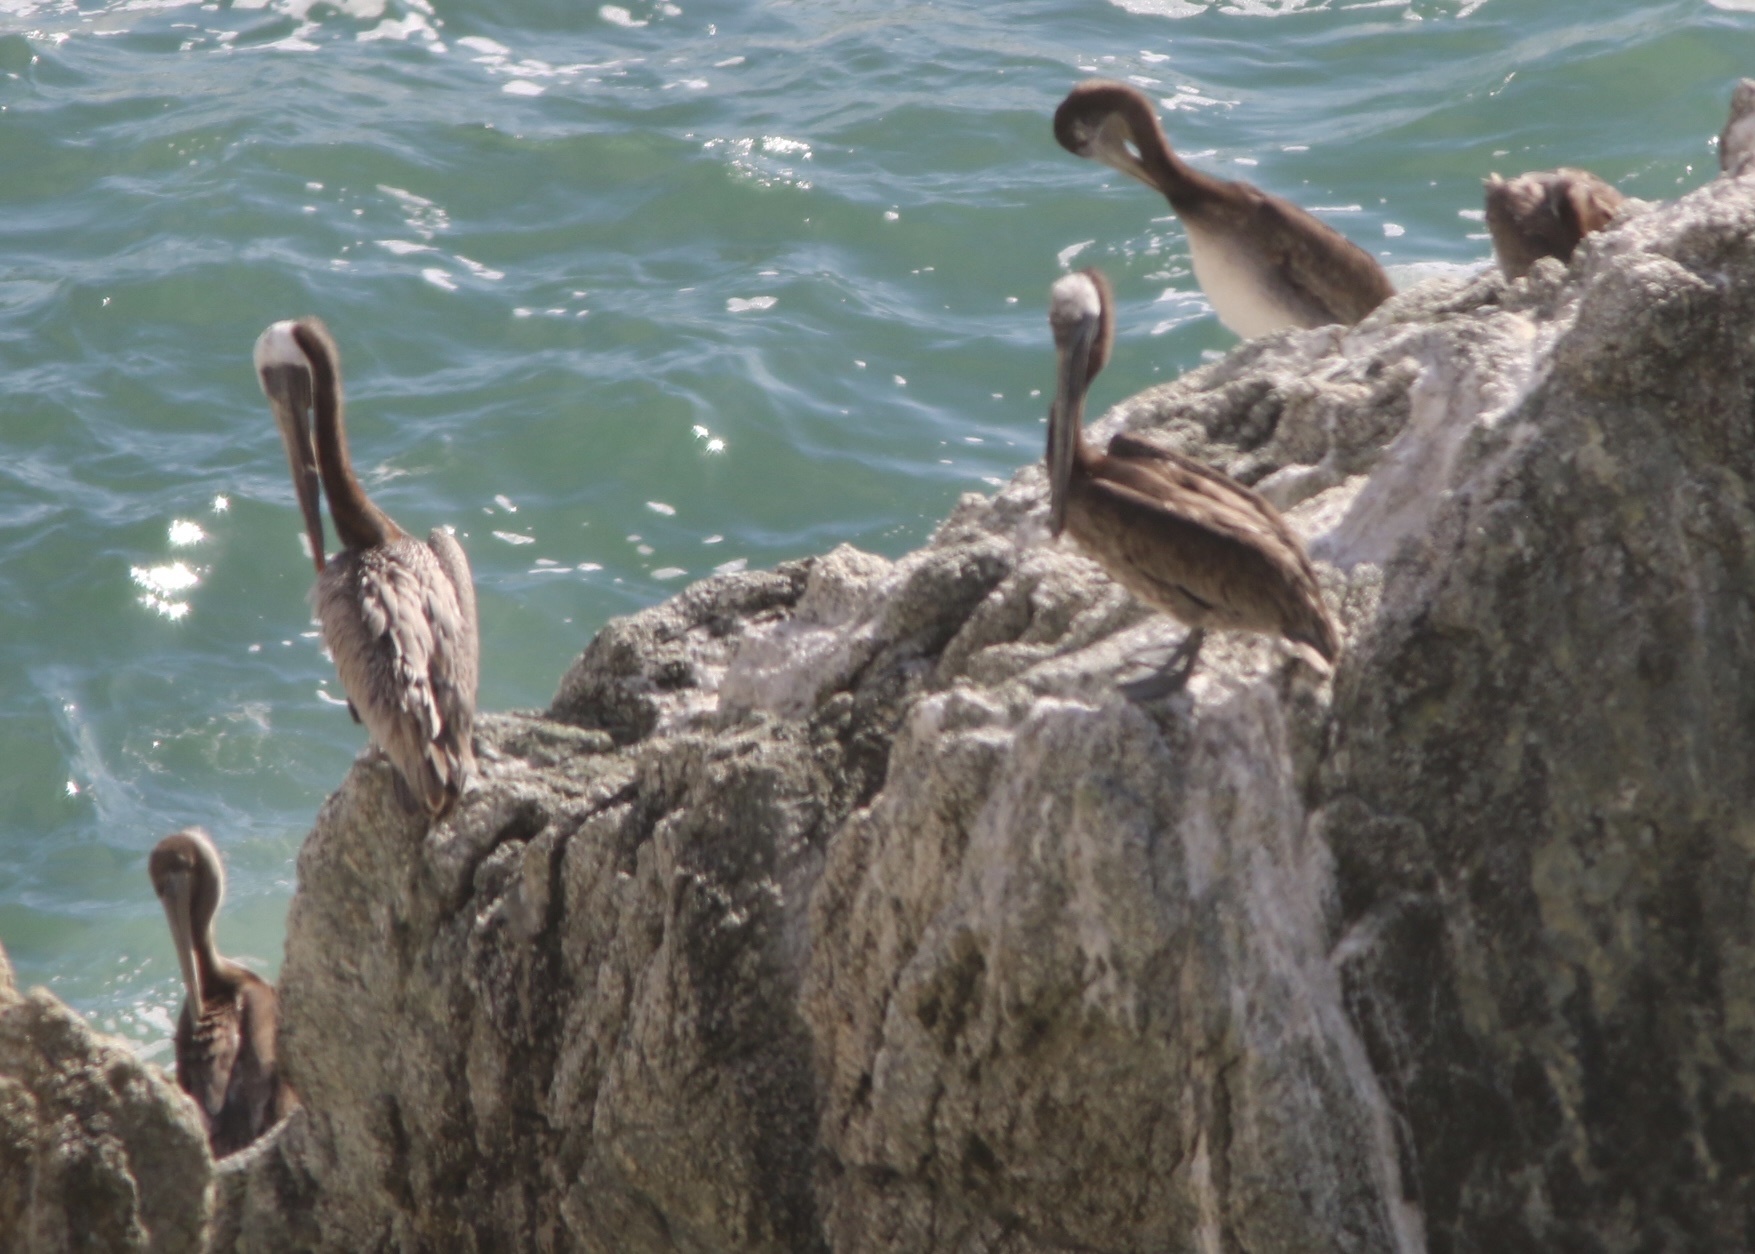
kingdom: Animalia
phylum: Chordata
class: Aves
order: Pelecaniformes
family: Pelecanidae
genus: Pelecanus
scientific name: Pelecanus occidentalis
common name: Brown pelican
